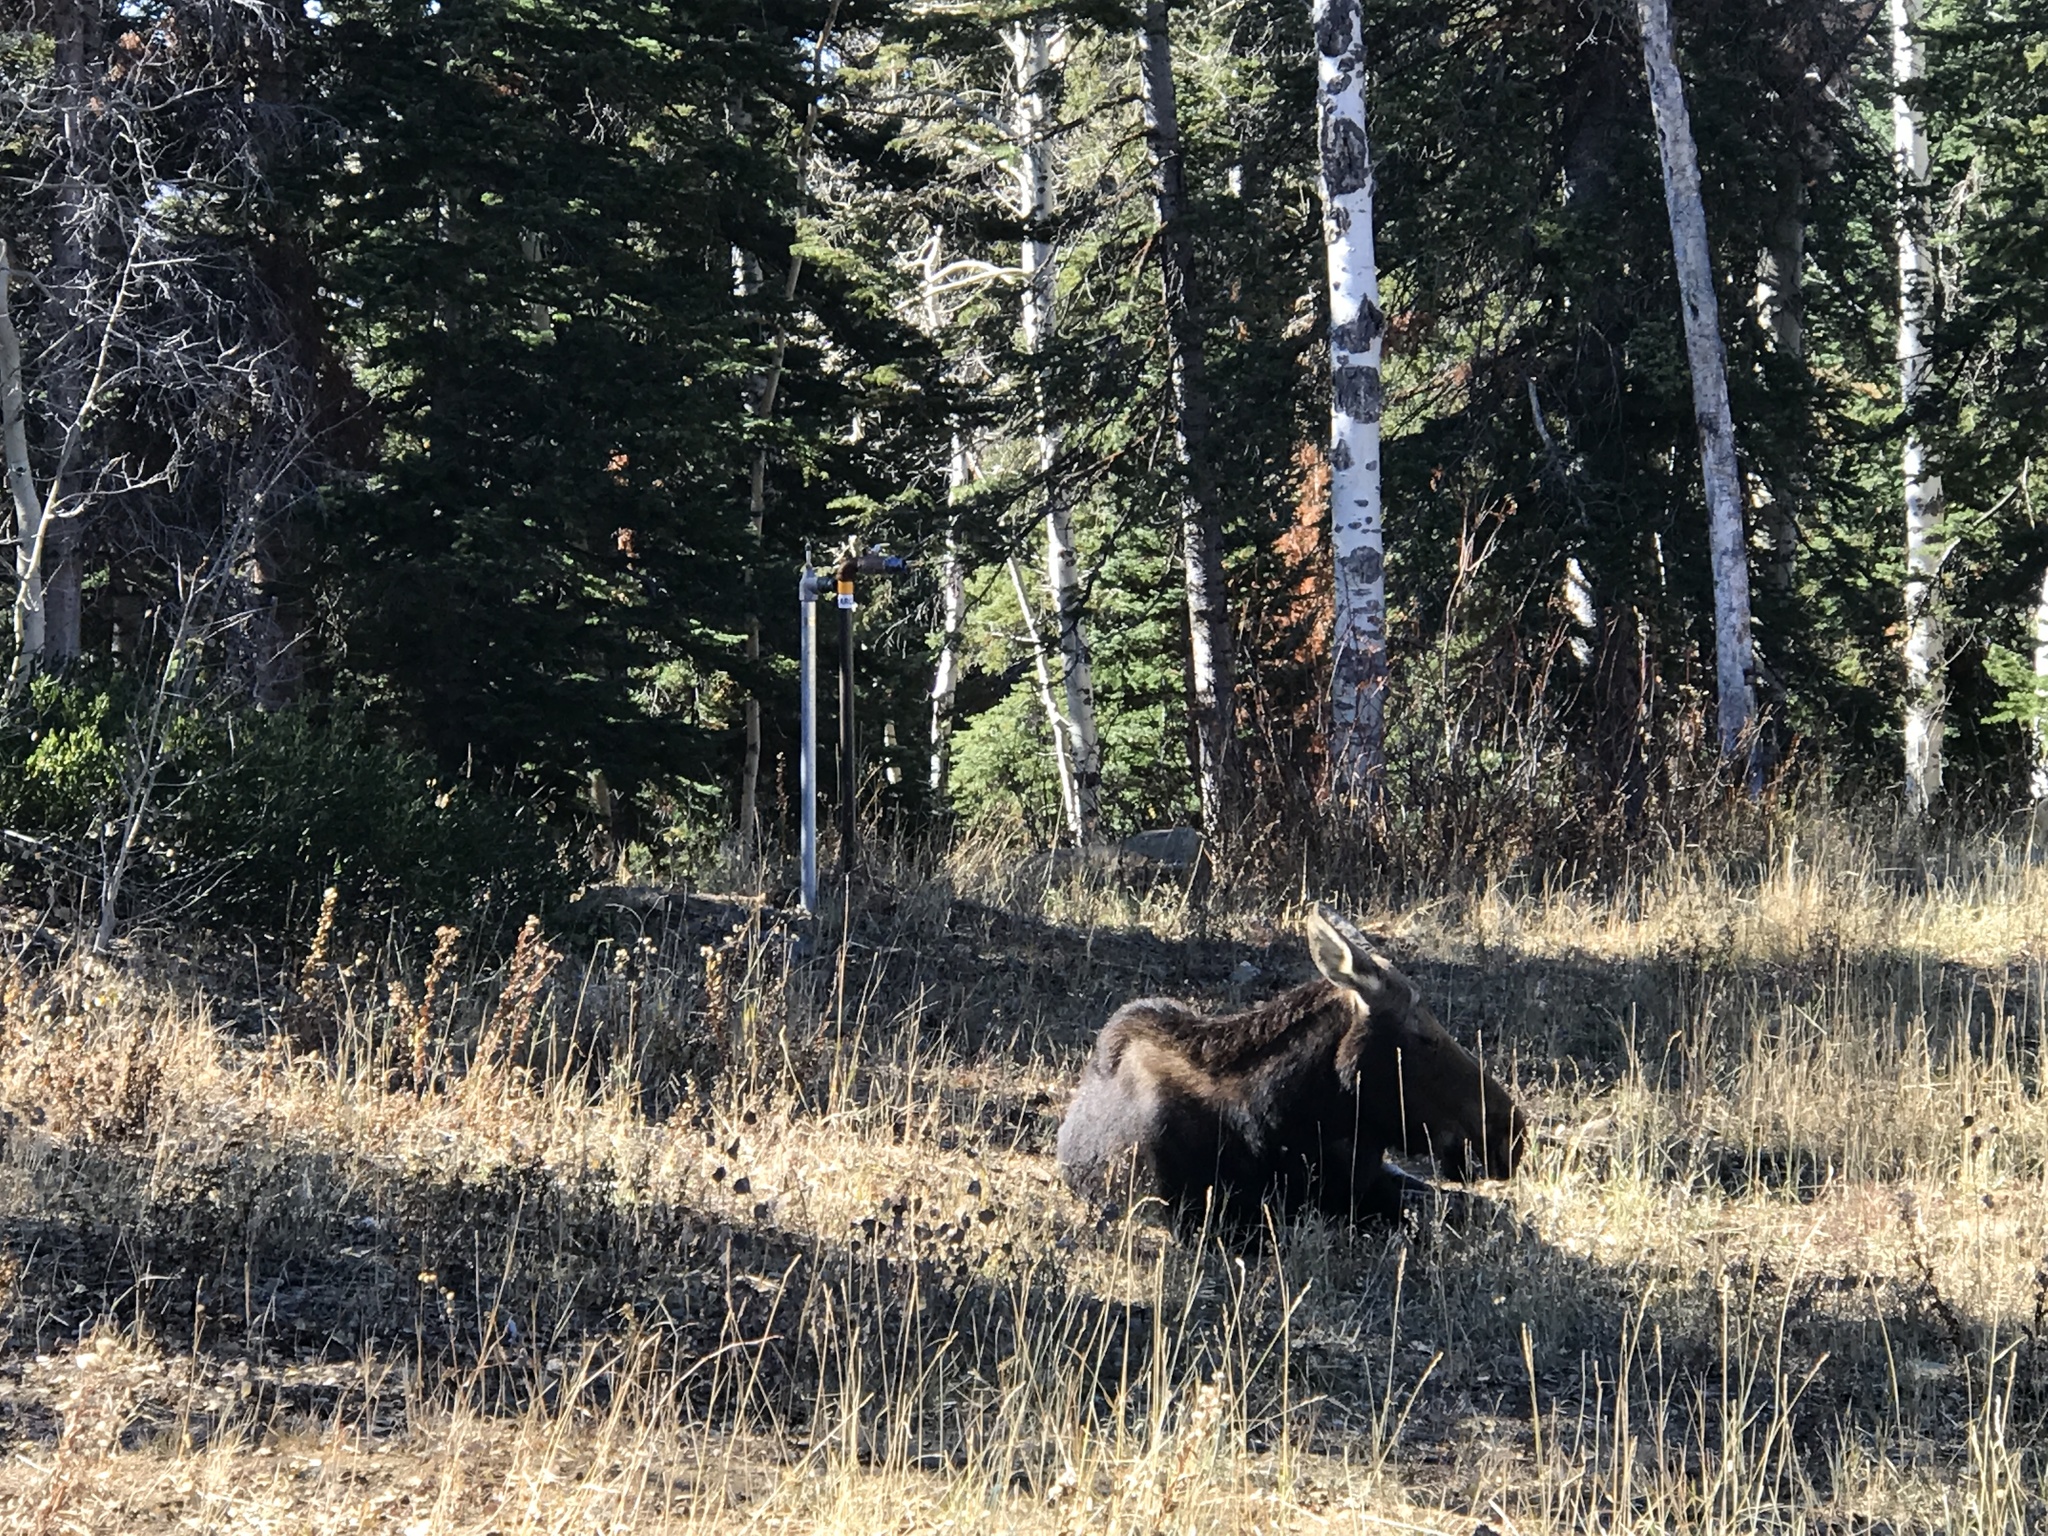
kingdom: Animalia
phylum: Chordata
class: Mammalia
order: Artiodactyla
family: Cervidae
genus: Alces
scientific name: Alces alces
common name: Moose
